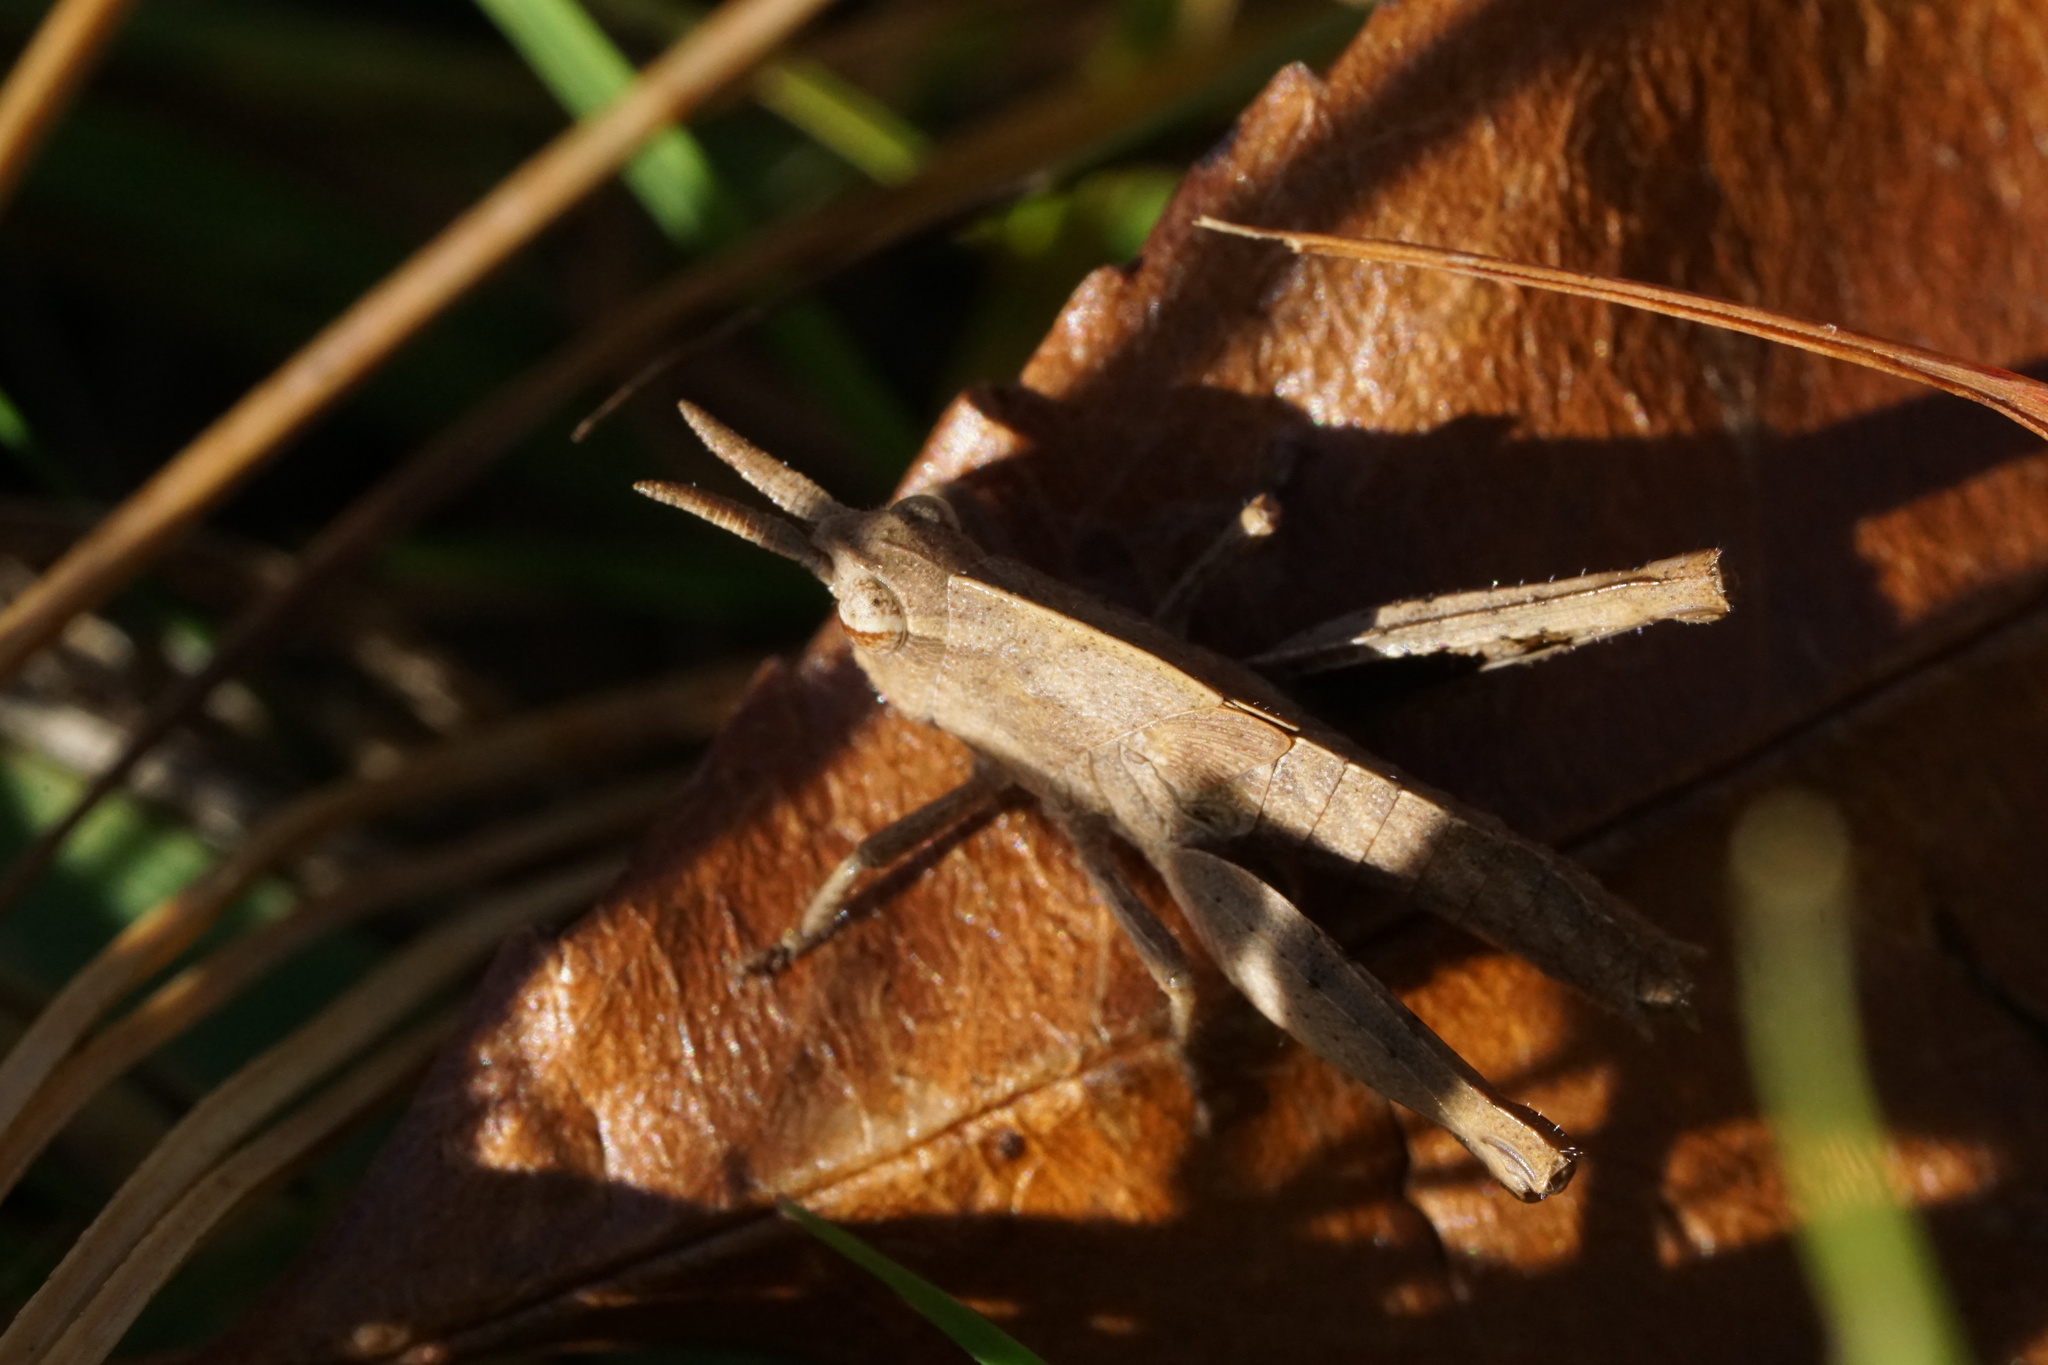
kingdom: Animalia
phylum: Arthropoda
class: Insecta
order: Orthoptera
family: Acrididae
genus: Chortophaga
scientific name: Chortophaga viridifasciata
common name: Green-striped grasshopper
